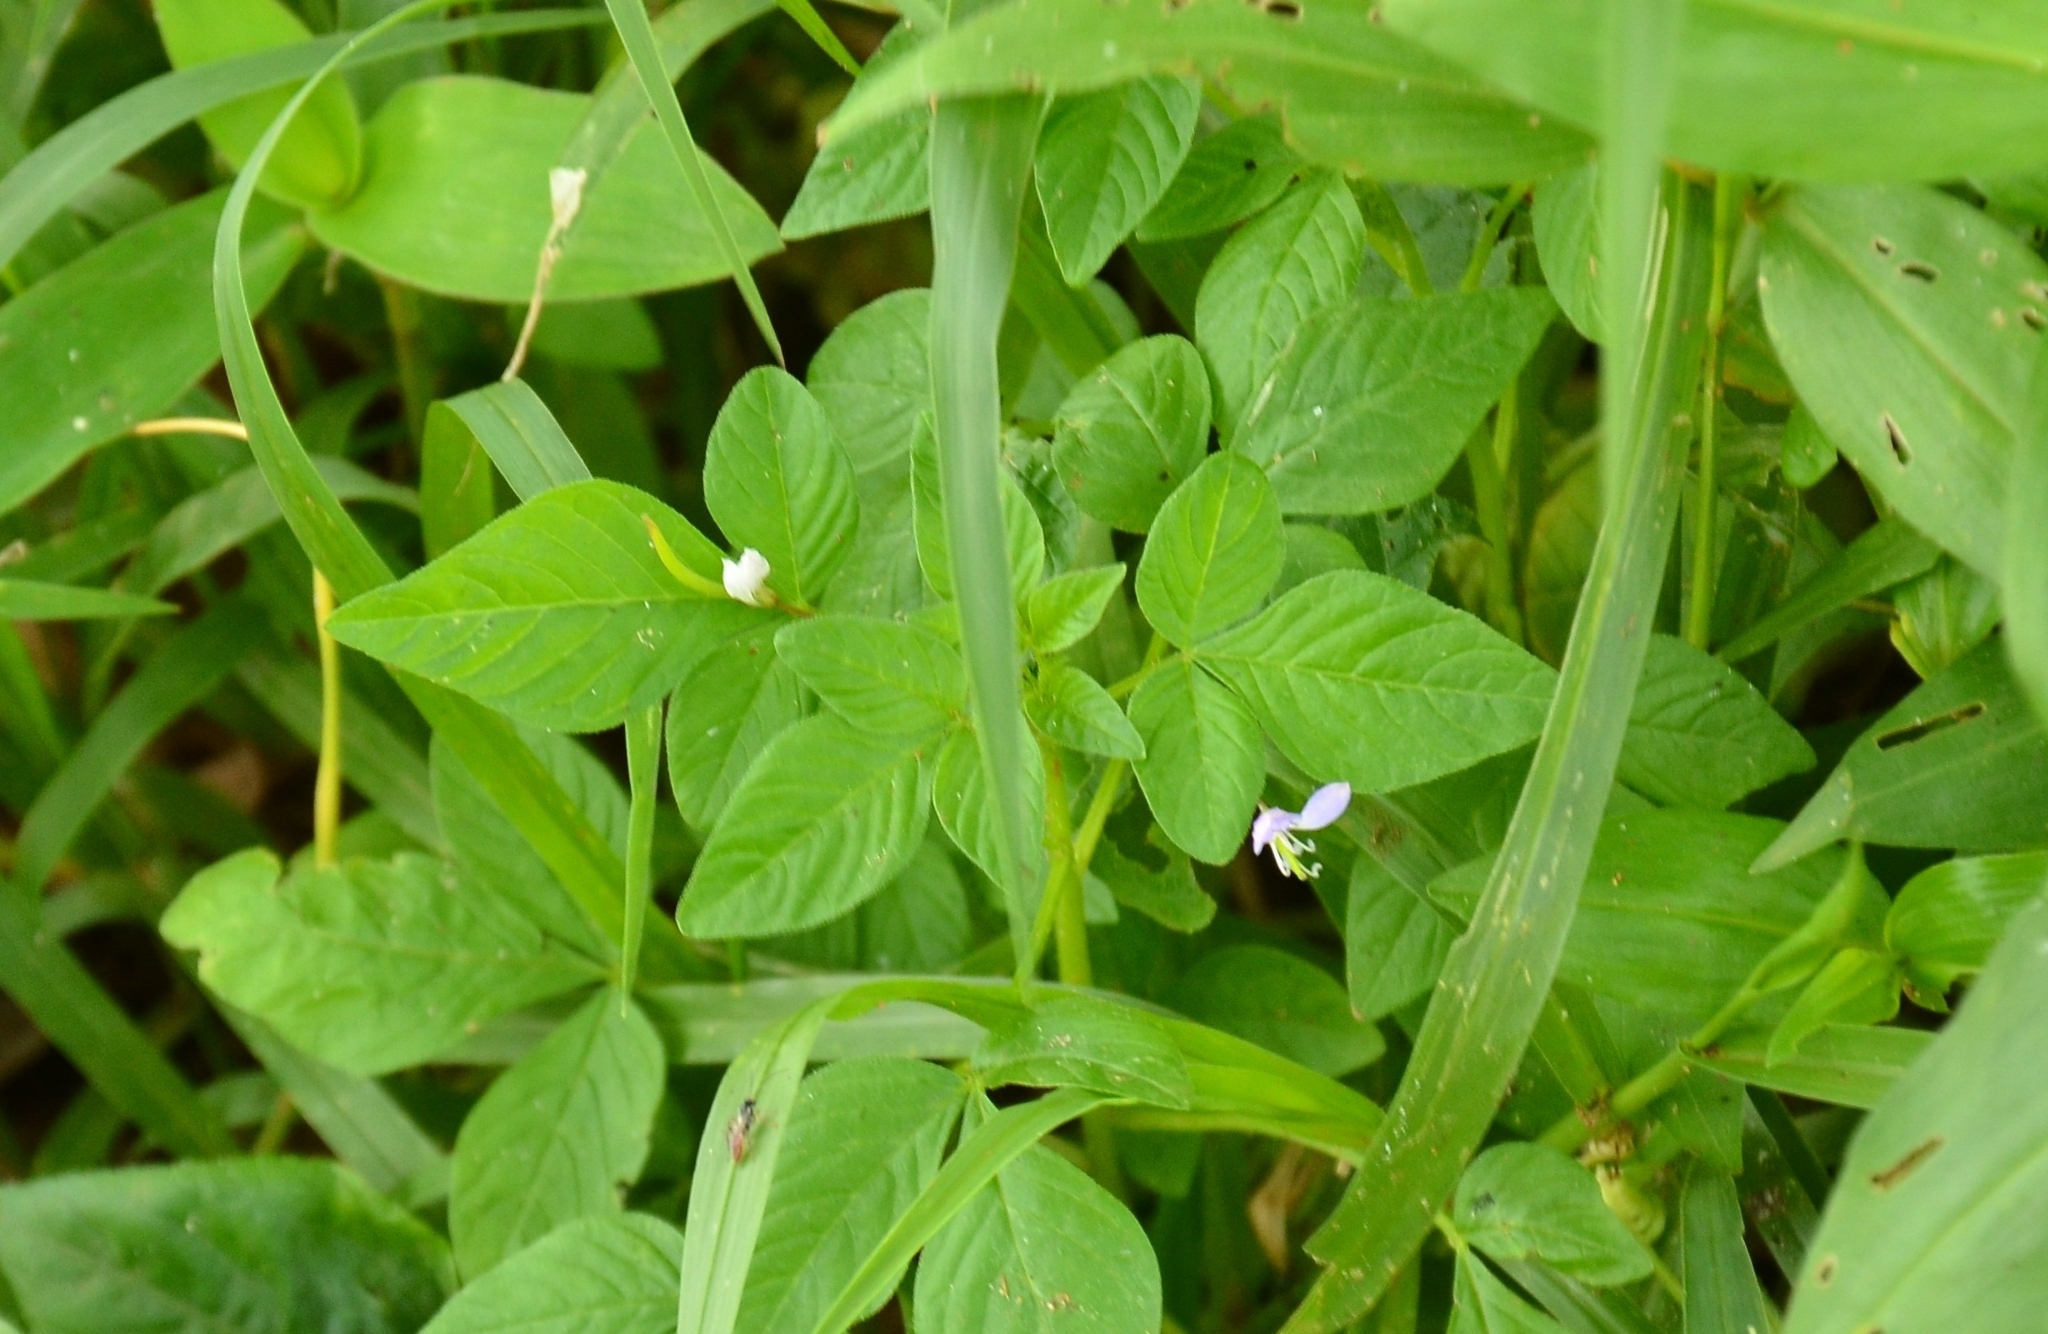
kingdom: Plantae
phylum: Tracheophyta
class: Magnoliopsida
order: Brassicales
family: Cleomaceae
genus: Sieruela
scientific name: Sieruela rutidosperma
